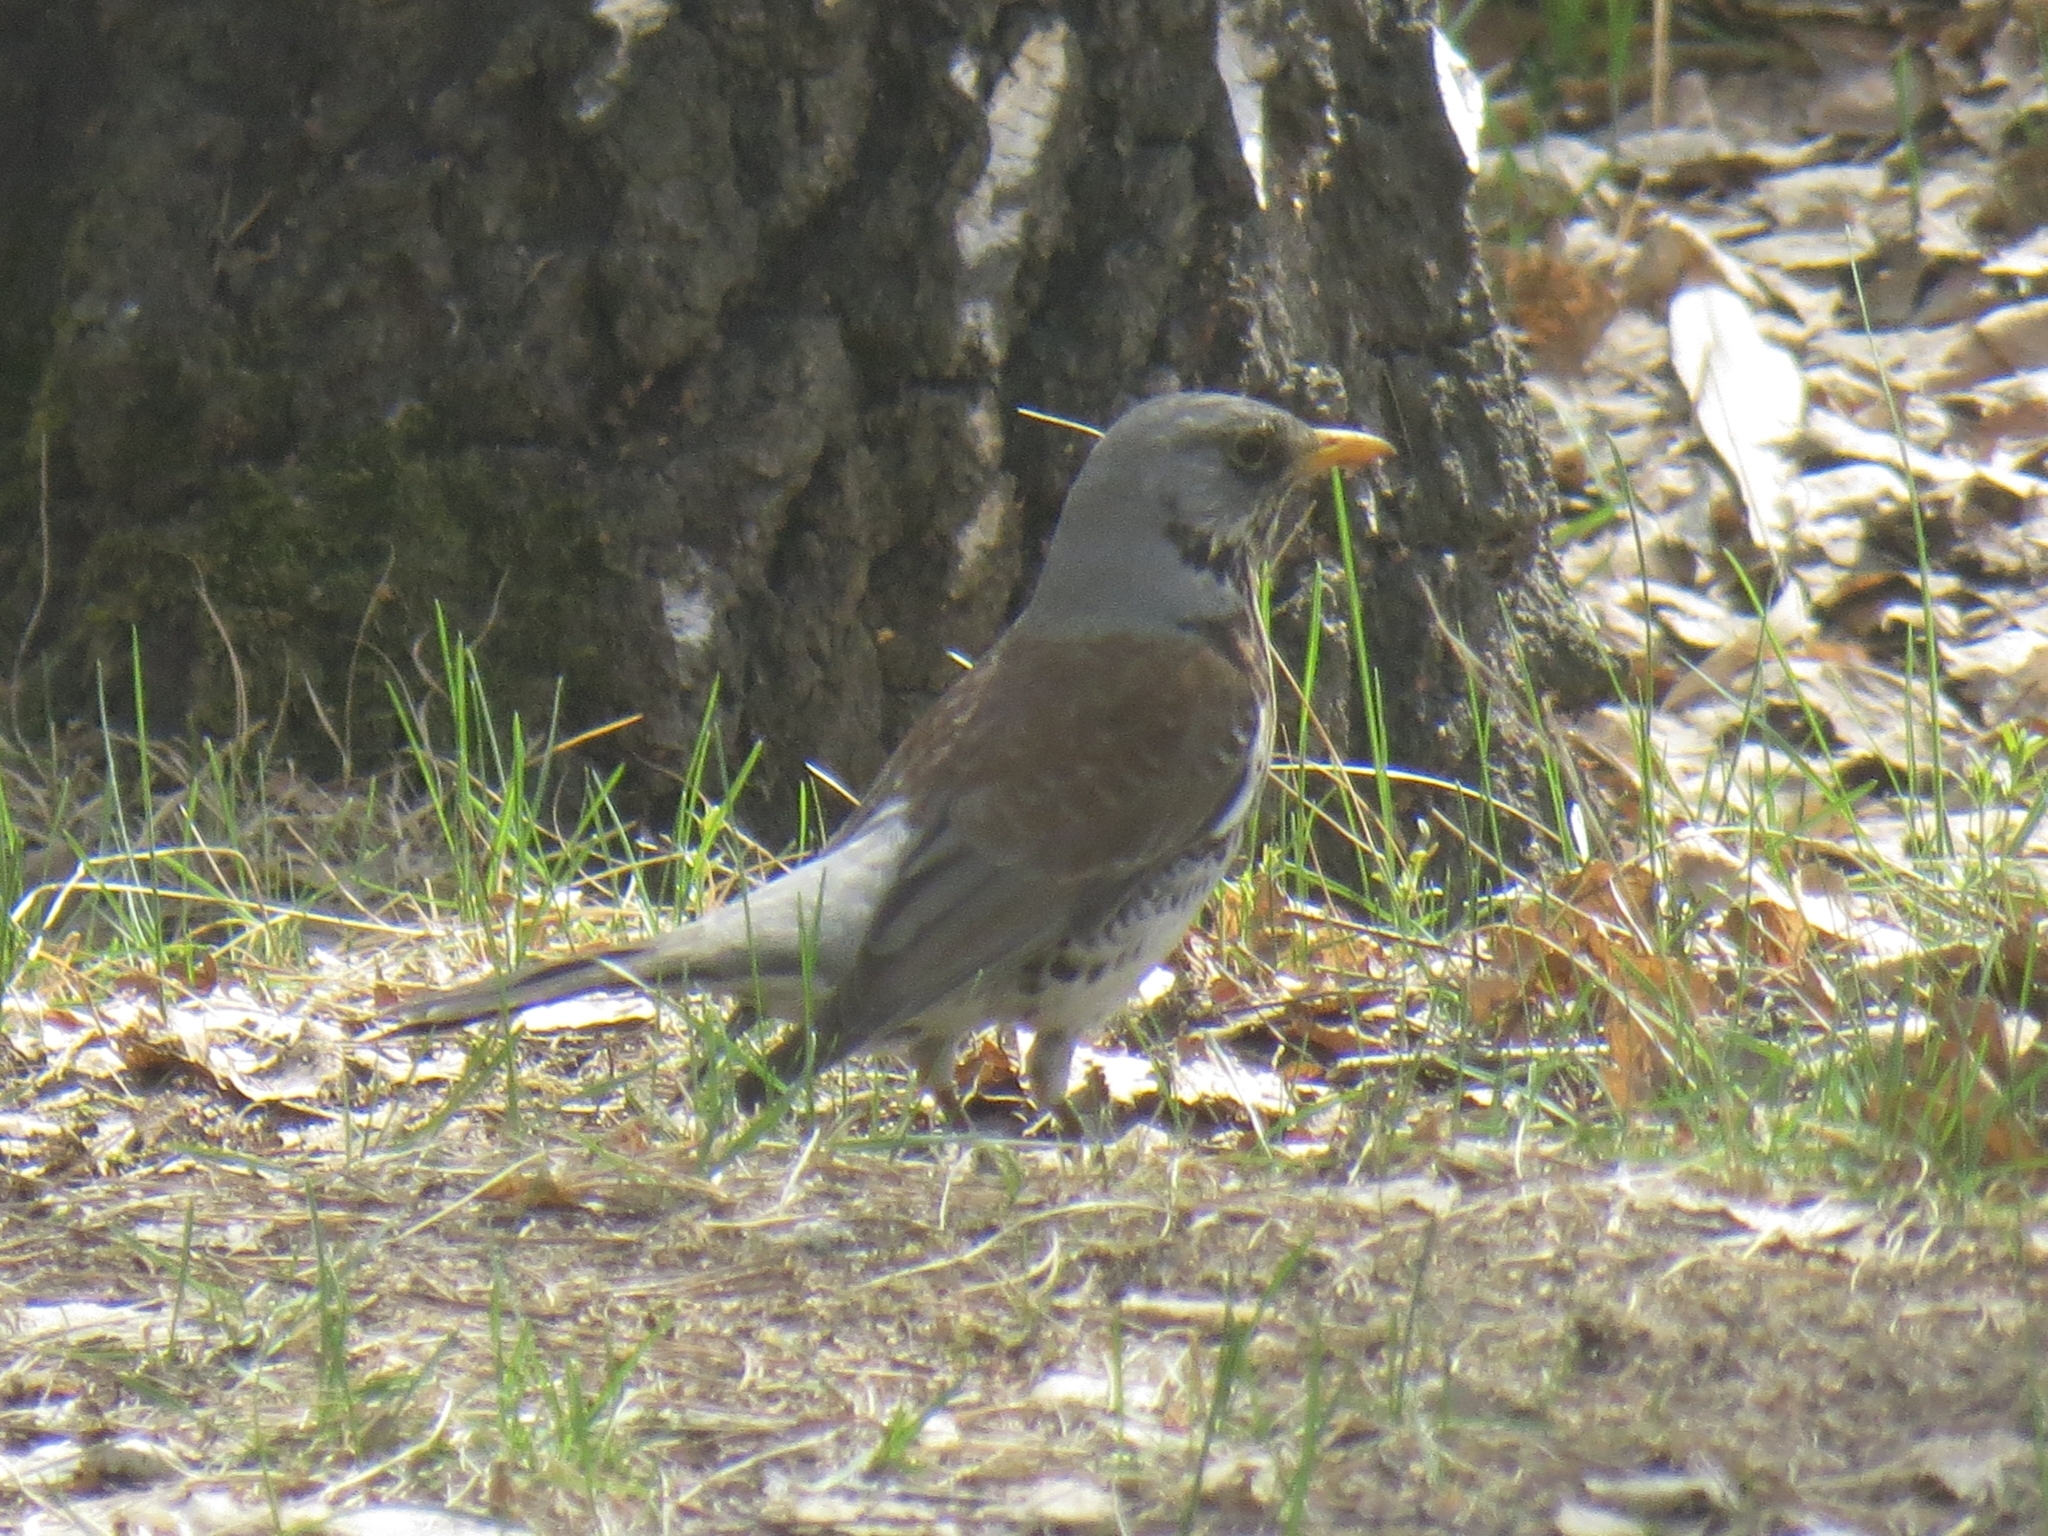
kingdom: Animalia
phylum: Chordata
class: Aves
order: Passeriformes
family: Turdidae
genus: Turdus
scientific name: Turdus pilaris
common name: Fieldfare
